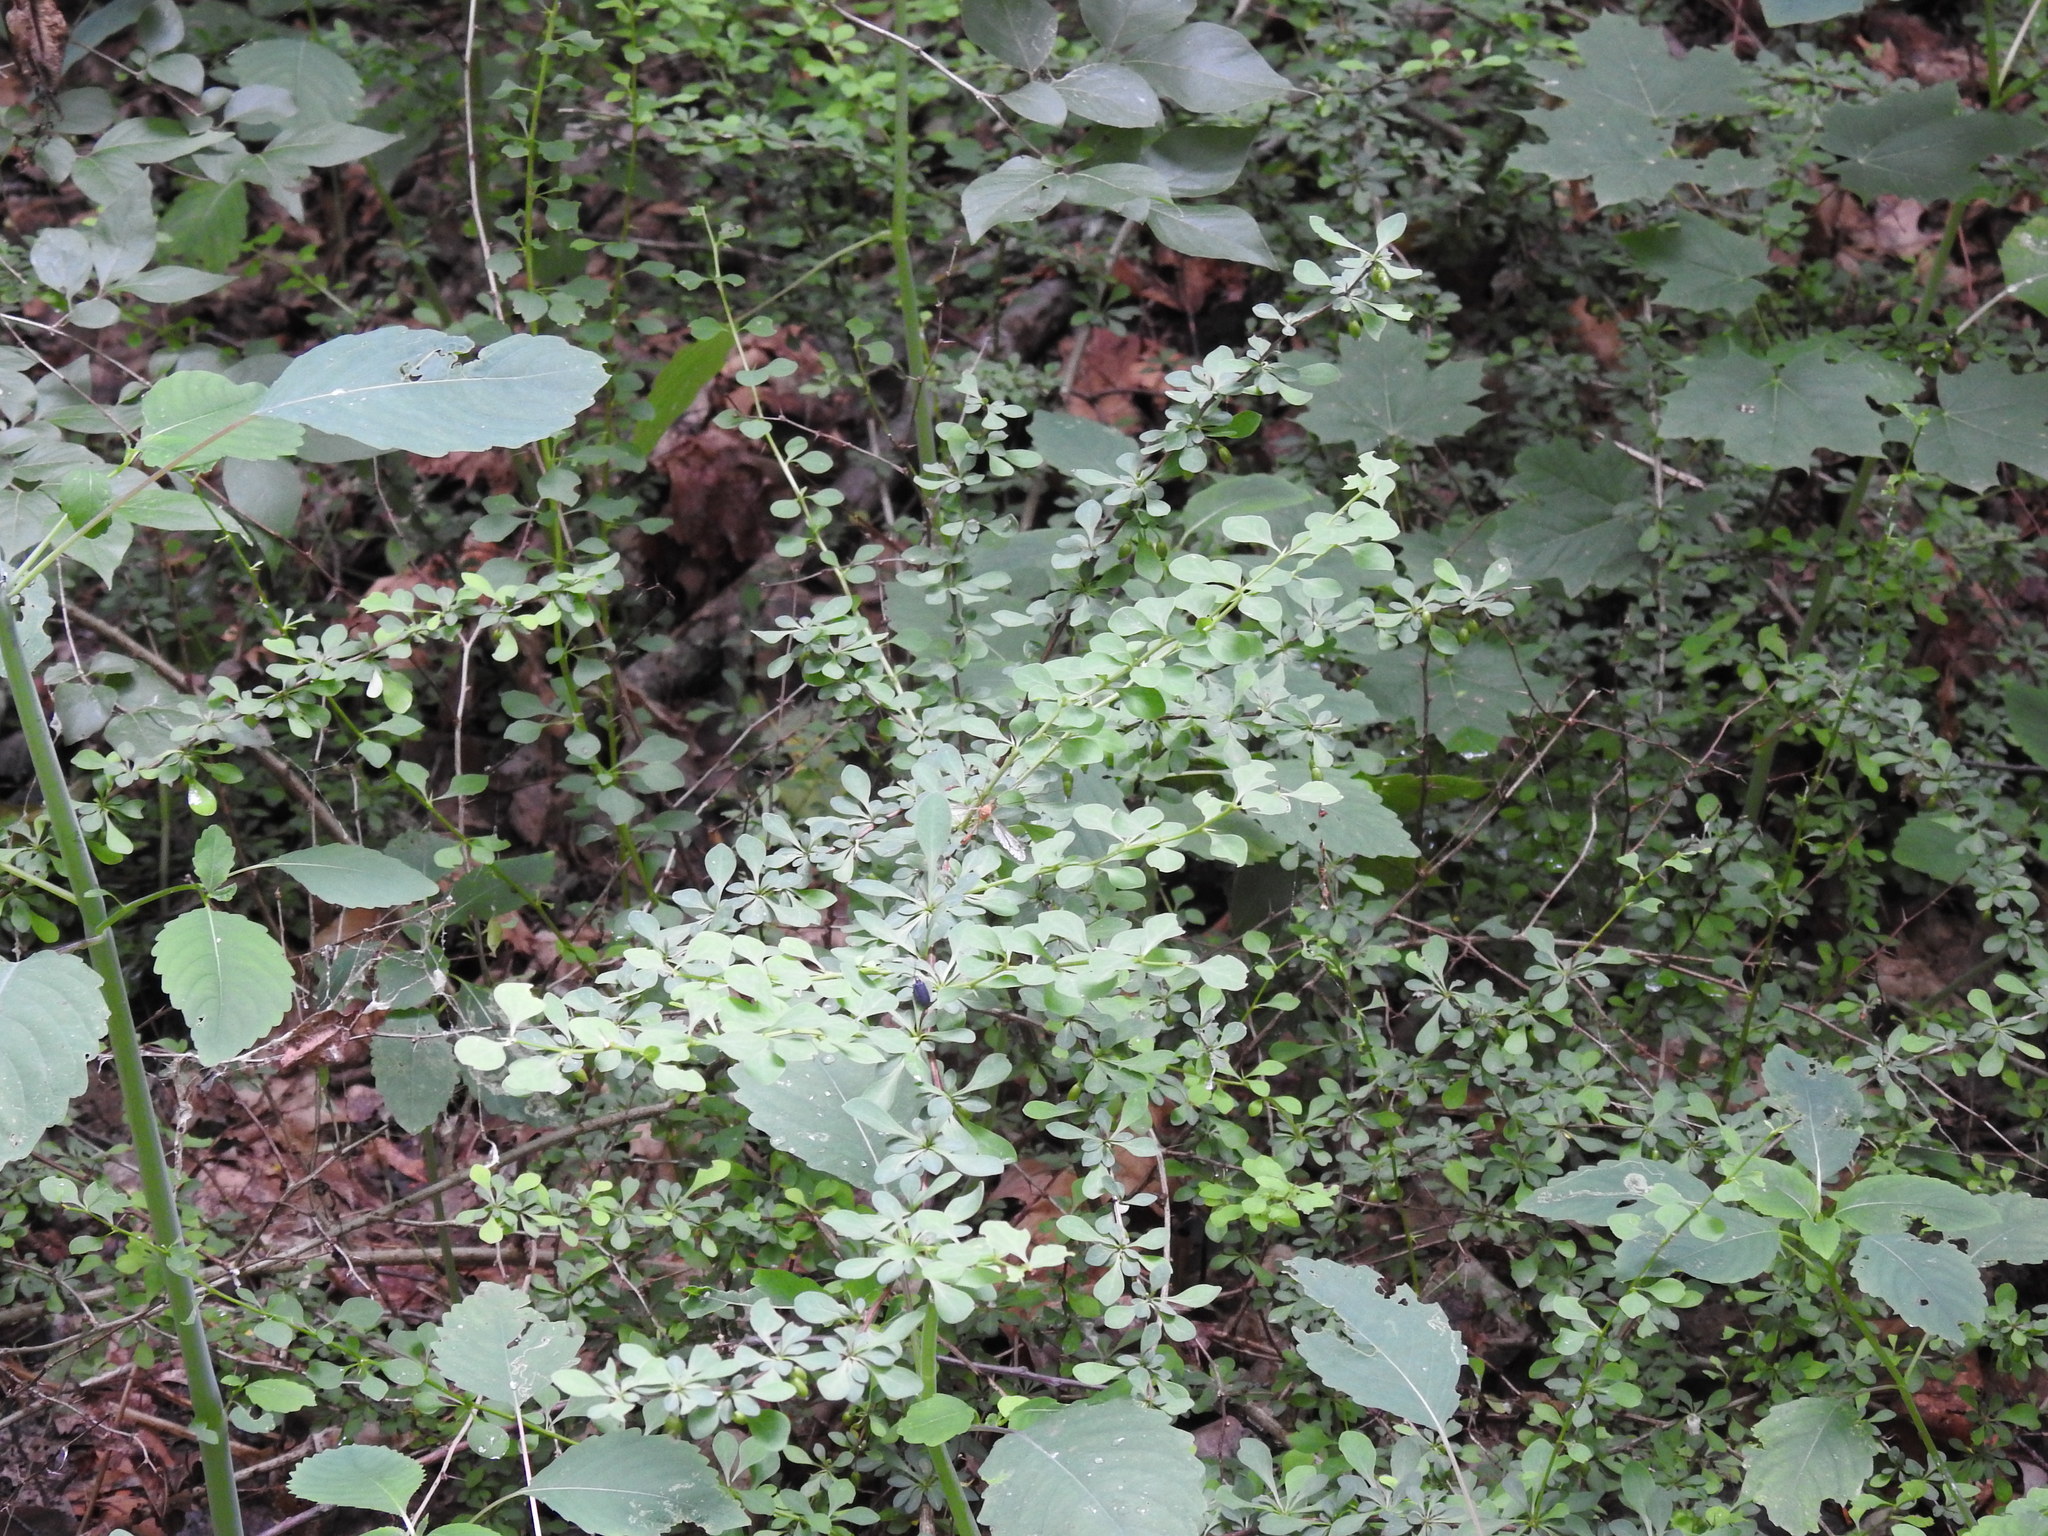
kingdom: Plantae
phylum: Tracheophyta
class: Magnoliopsida
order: Ranunculales
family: Berberidaceae
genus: Berberis
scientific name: Berberis thunbergii
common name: Japanese barberry
